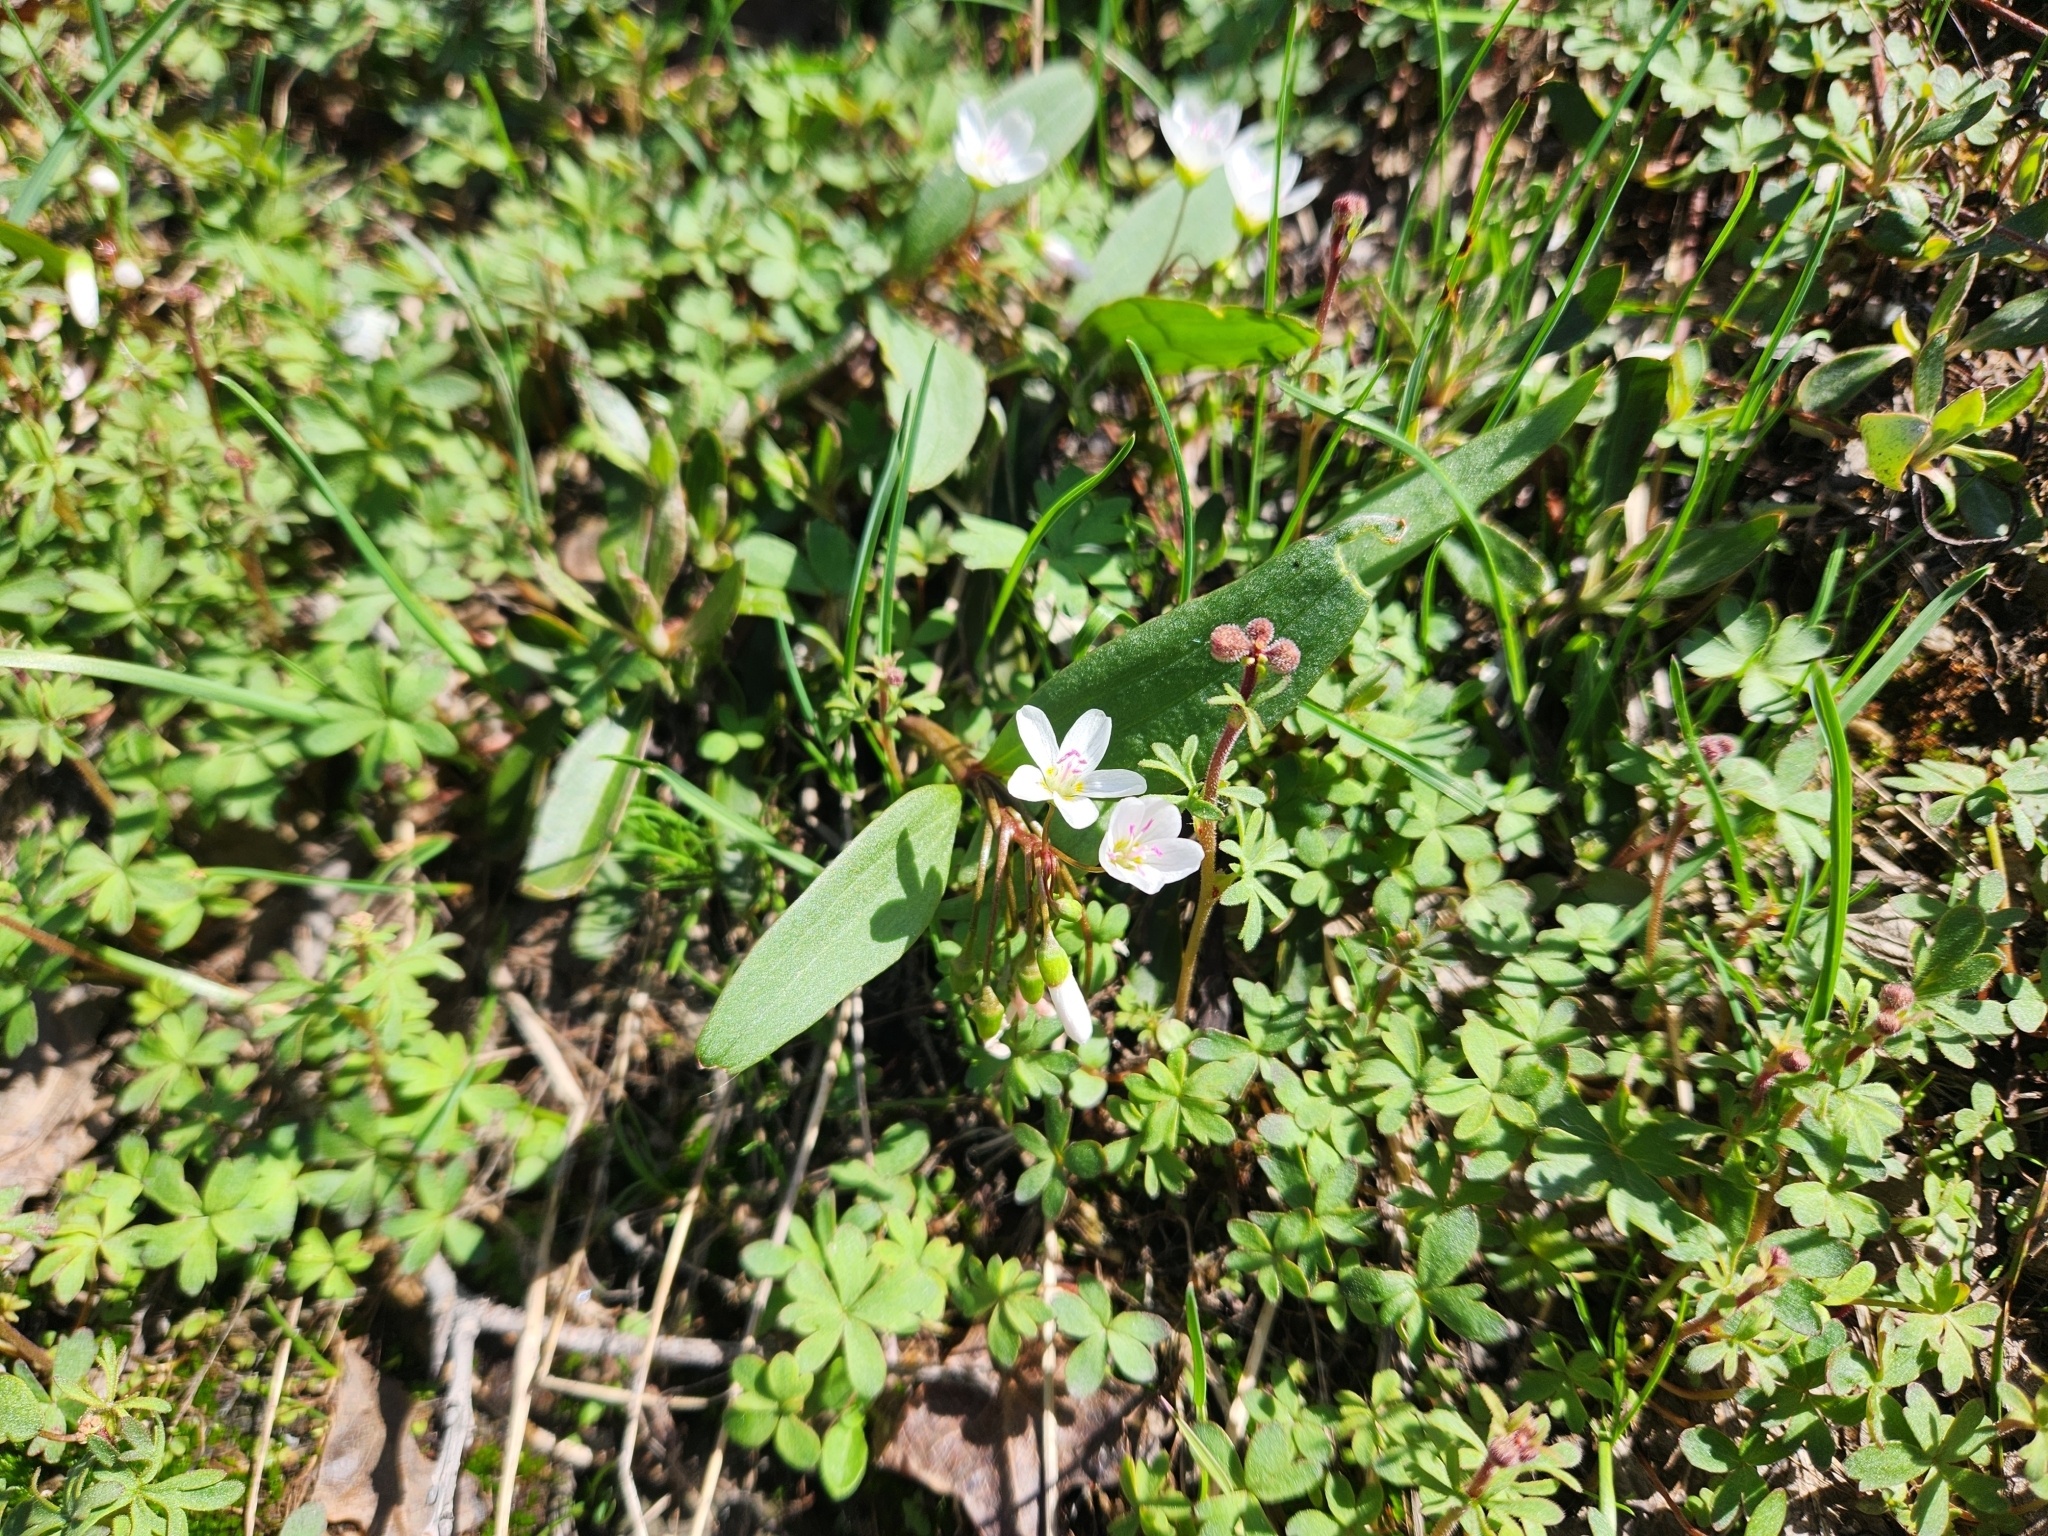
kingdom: Plantae
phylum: Tracheophyta
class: Magnoliopsida
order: Caryophyllales
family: Montiaceae
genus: Claytonia
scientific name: Claytonia lanceolata
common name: Western spring-beauty
